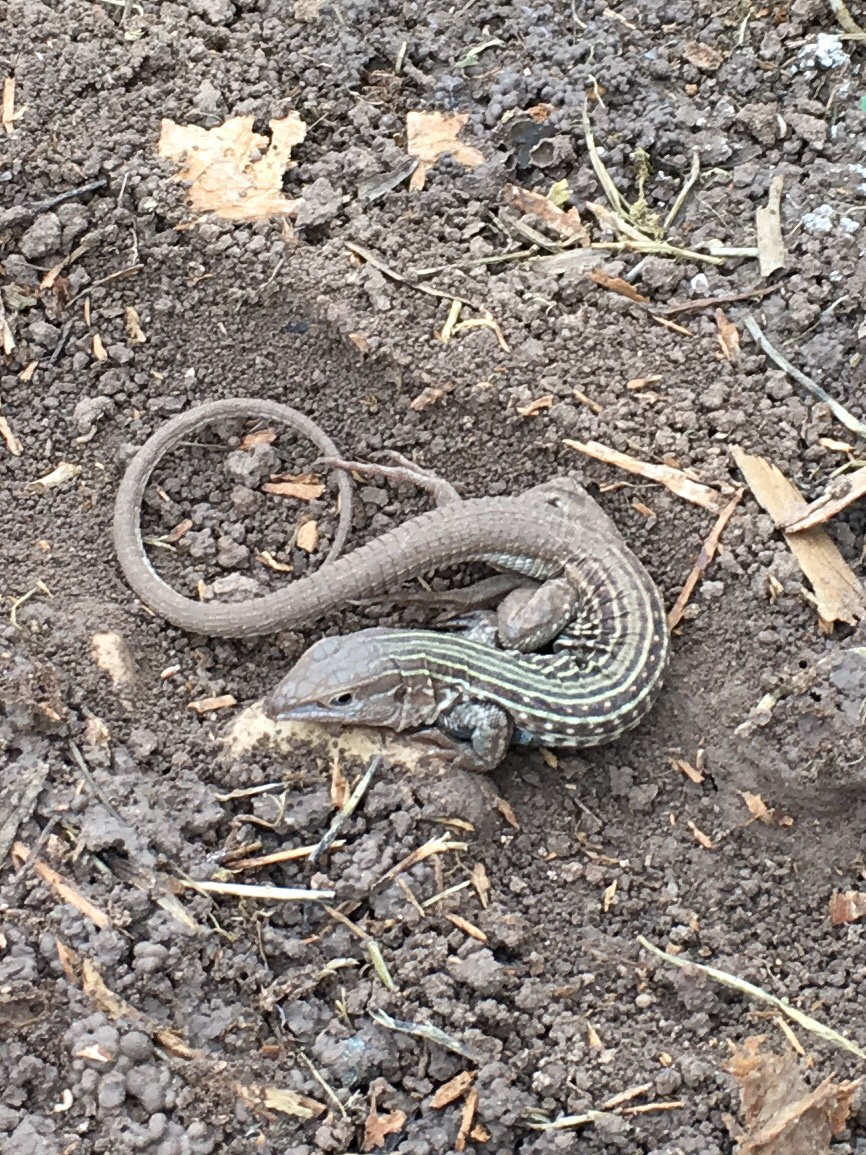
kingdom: Animalia
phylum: Chordata
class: Squamata
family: Teiidae
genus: Aspidoscelis
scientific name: Aspidoscelis gularis
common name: Eastern spotted whiptail
